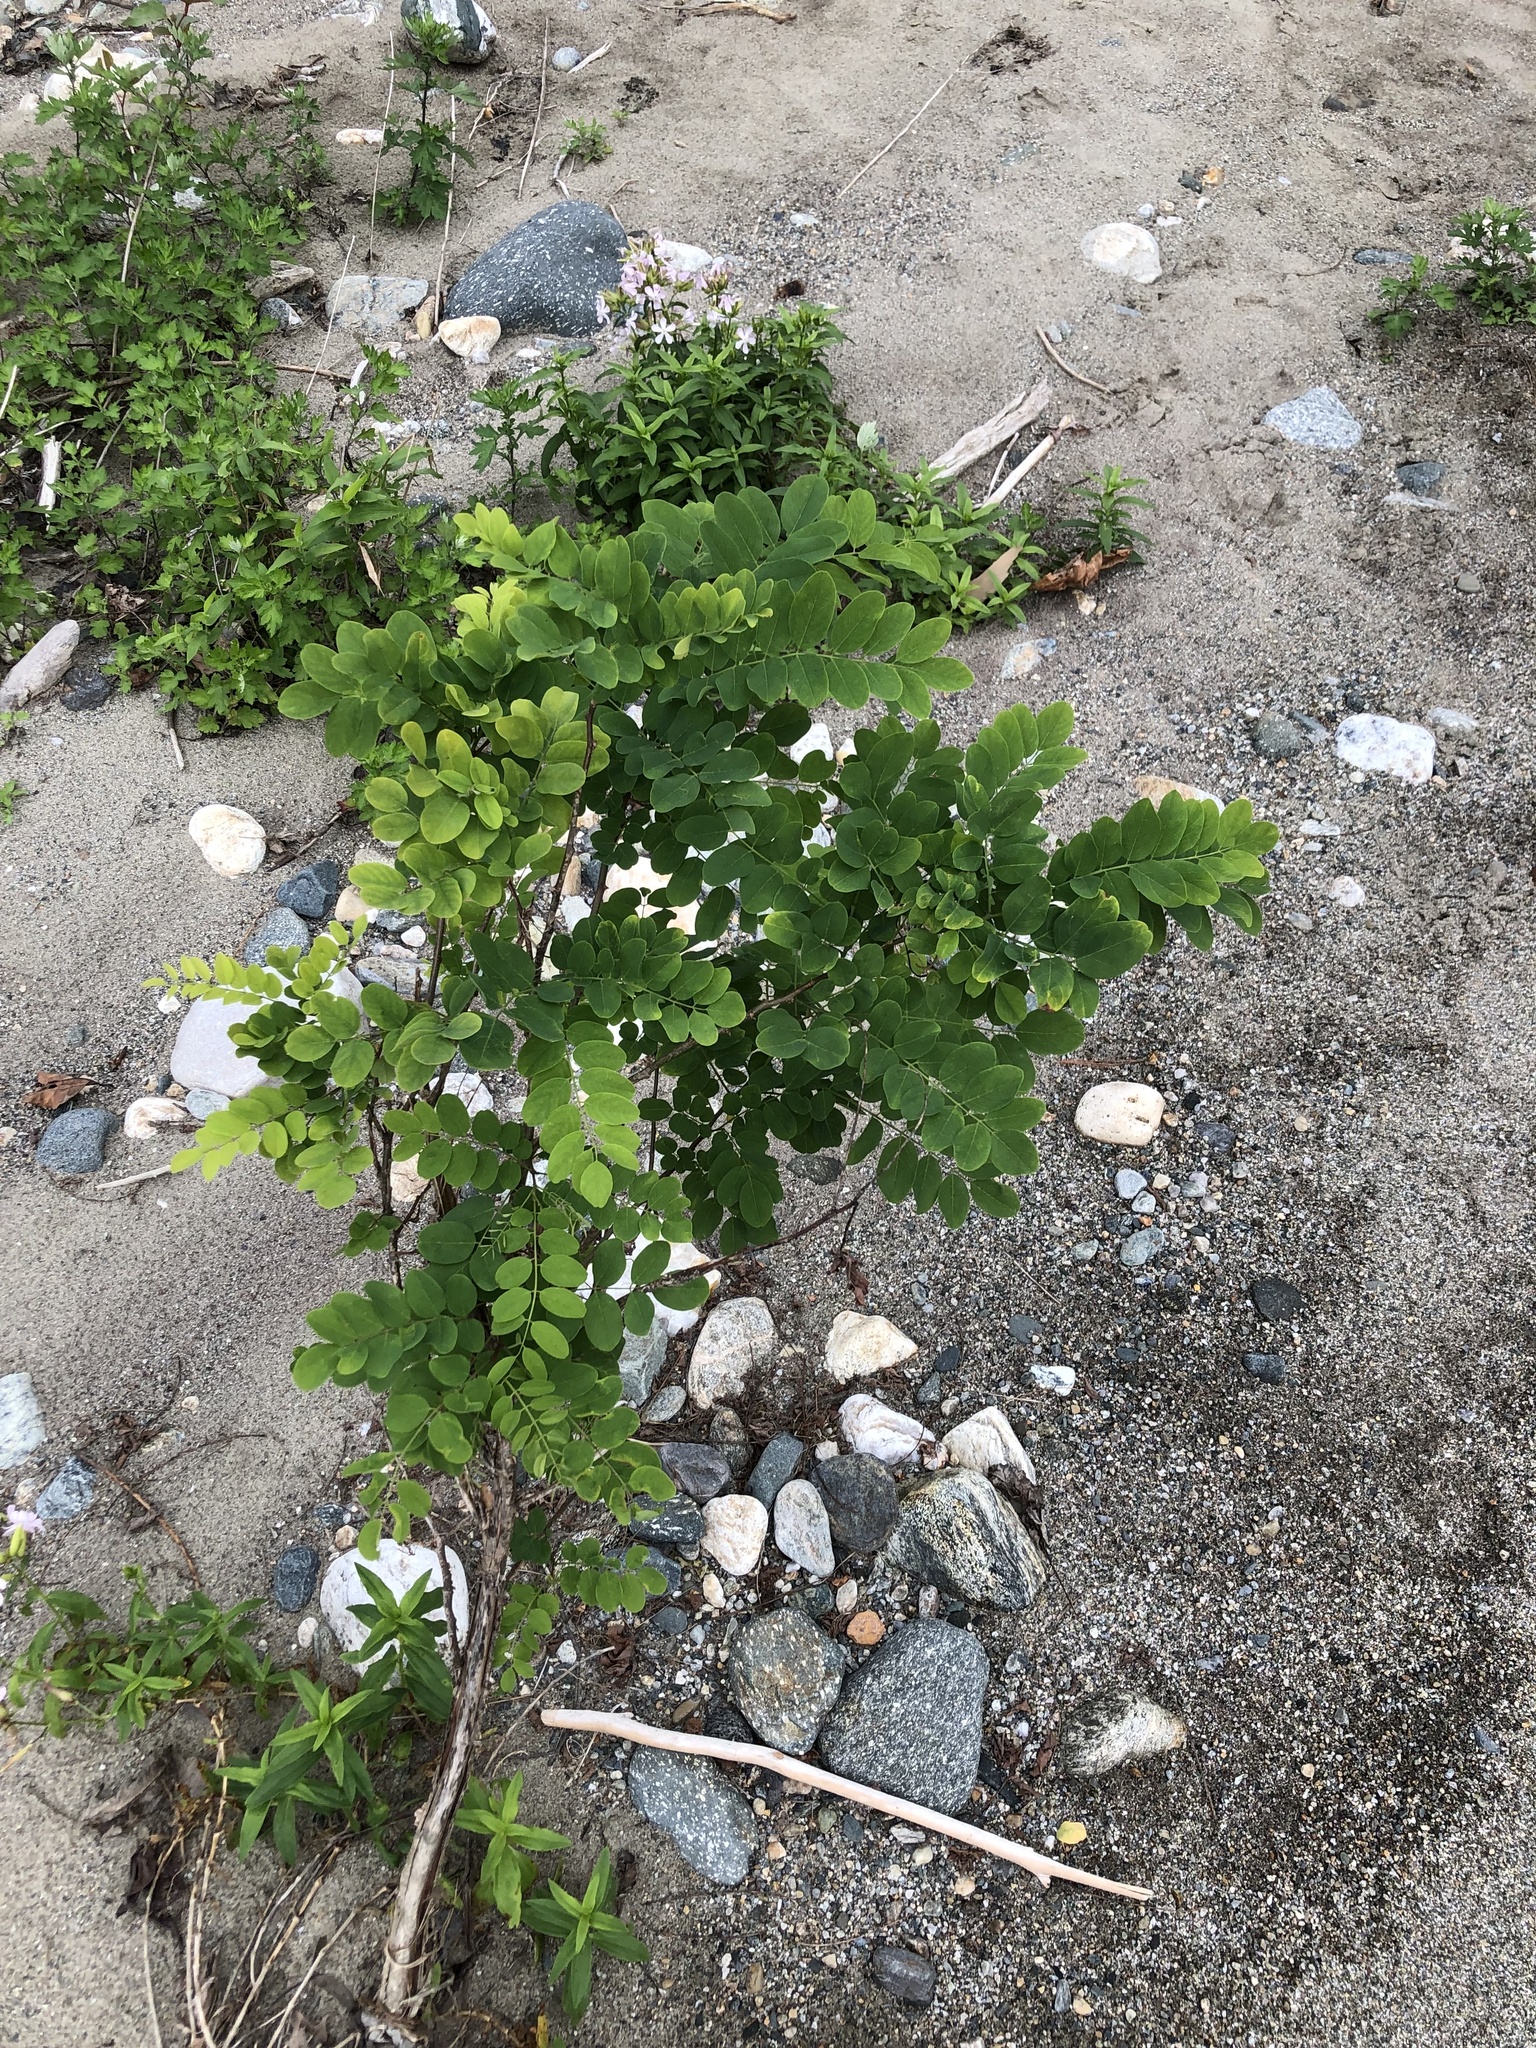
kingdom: Plantae
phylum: Tracheophyta
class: Magnoliopsida
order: Fabales
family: Fabaceae
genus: Robinia
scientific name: Robinia pseudoacacia
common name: Black locust
